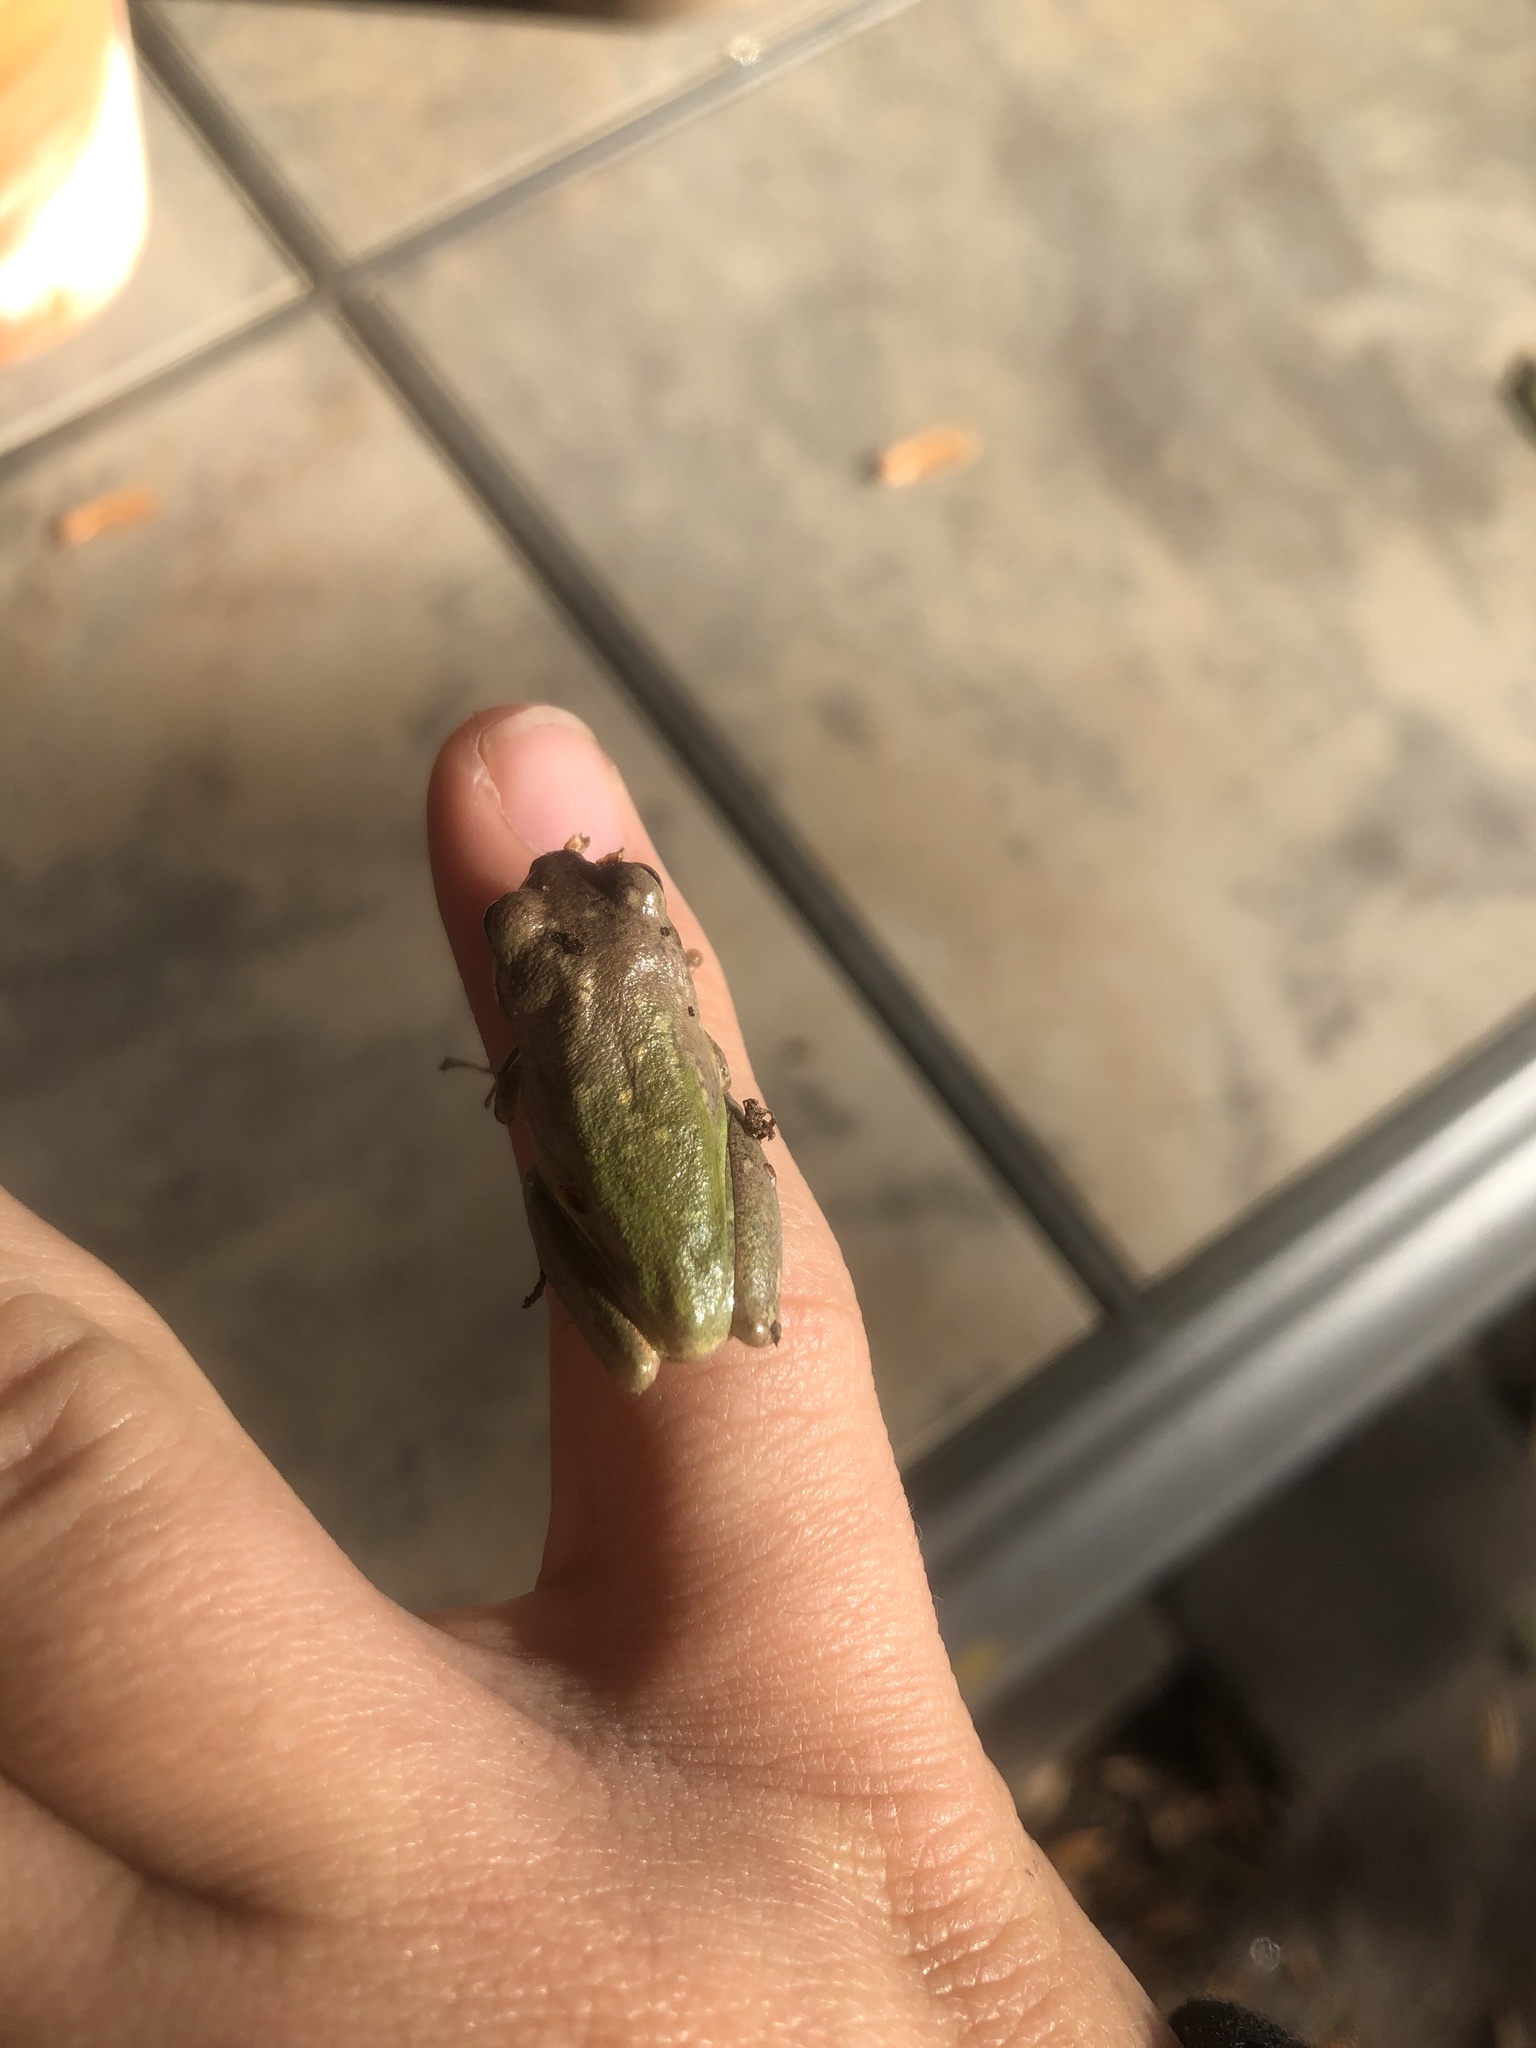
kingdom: Animalia
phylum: Chordata
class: Amphibia
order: Anura
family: Hylidae
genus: Dryophytes
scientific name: Dryophytes squirellus
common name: Squirrel treefrog
